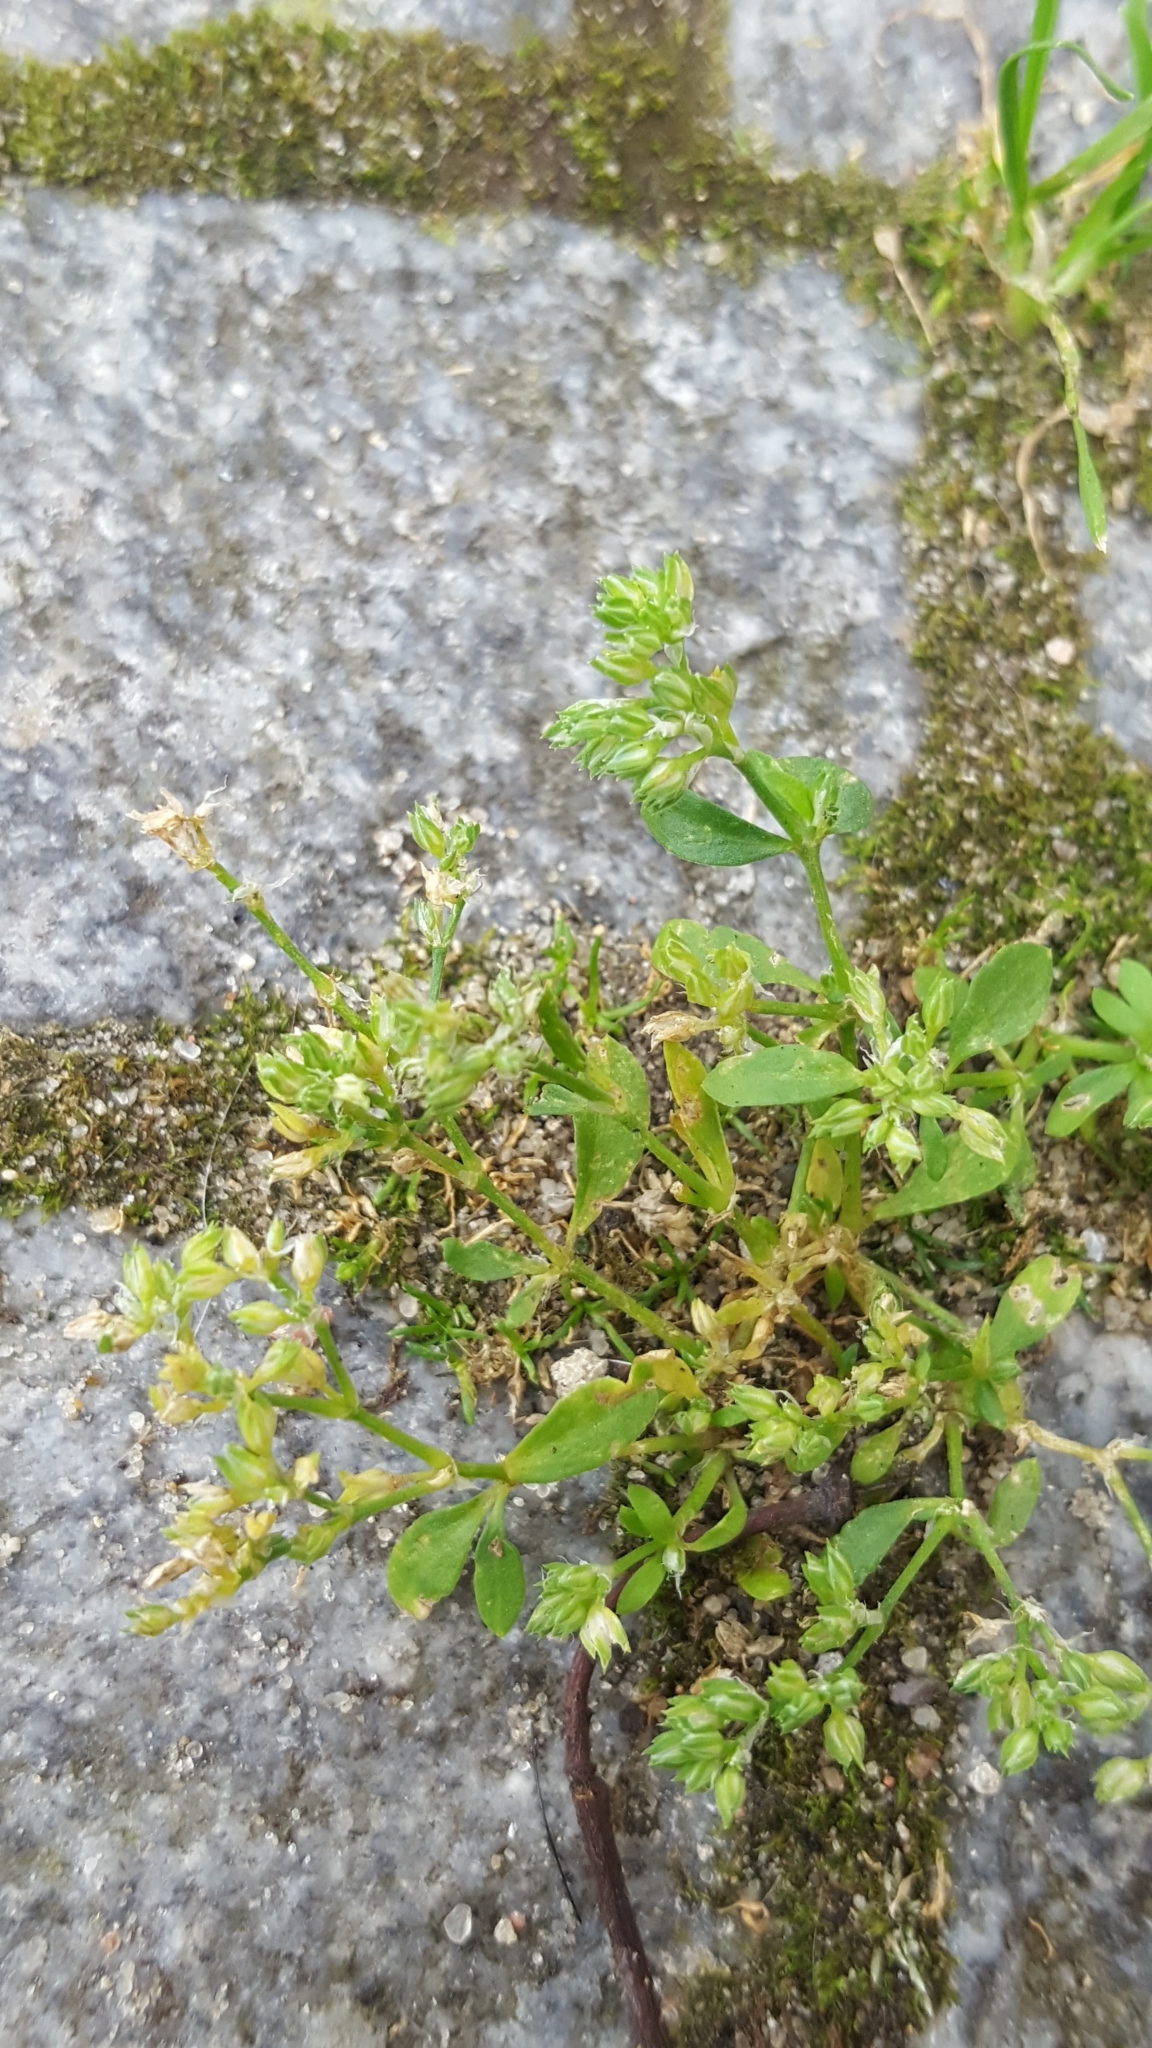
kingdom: Plantae
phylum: Tracheophyta
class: Magnoliopsida
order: Caryophyllales
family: Caryophyllaceae
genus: Polycarpon
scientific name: Polycarpon tetraphyllum
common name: Four-leaved all-seed
